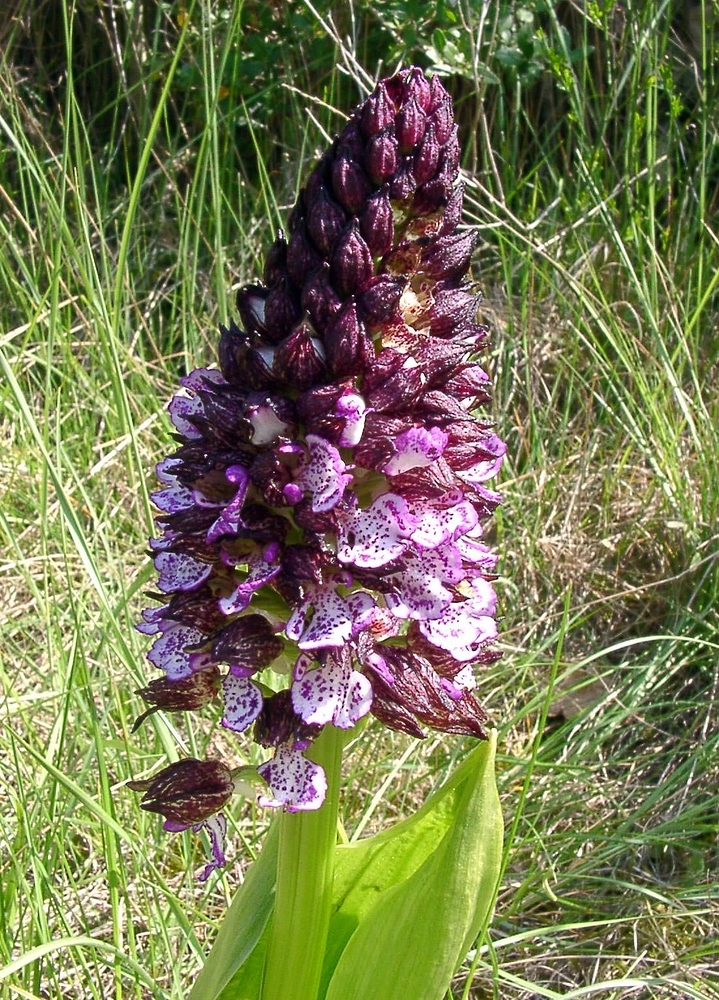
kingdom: Plantae
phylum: Tracheophyta
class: Liliopsida
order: Asparagales
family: Orchidaceae
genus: Orchis
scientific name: Orchis purpurea
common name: Lady orchid
